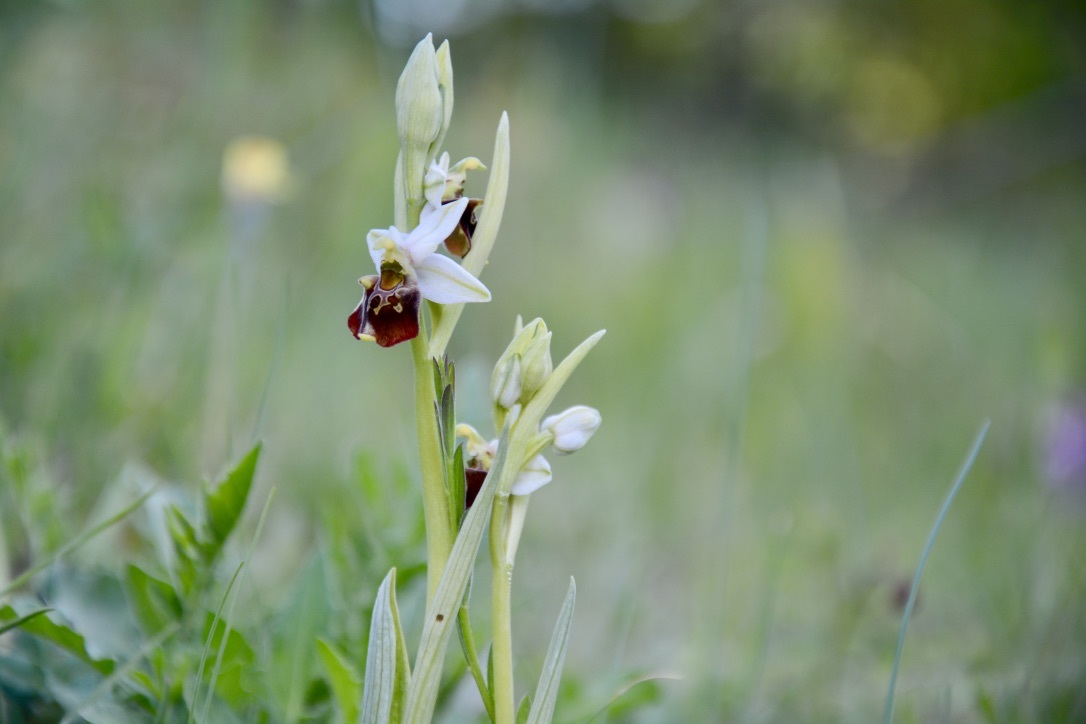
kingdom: Plantae
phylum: Tracheophyta
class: Liliopsida
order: Asparagales
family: Orchidaceae
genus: Ophrys
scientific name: Ophrys holosericea
